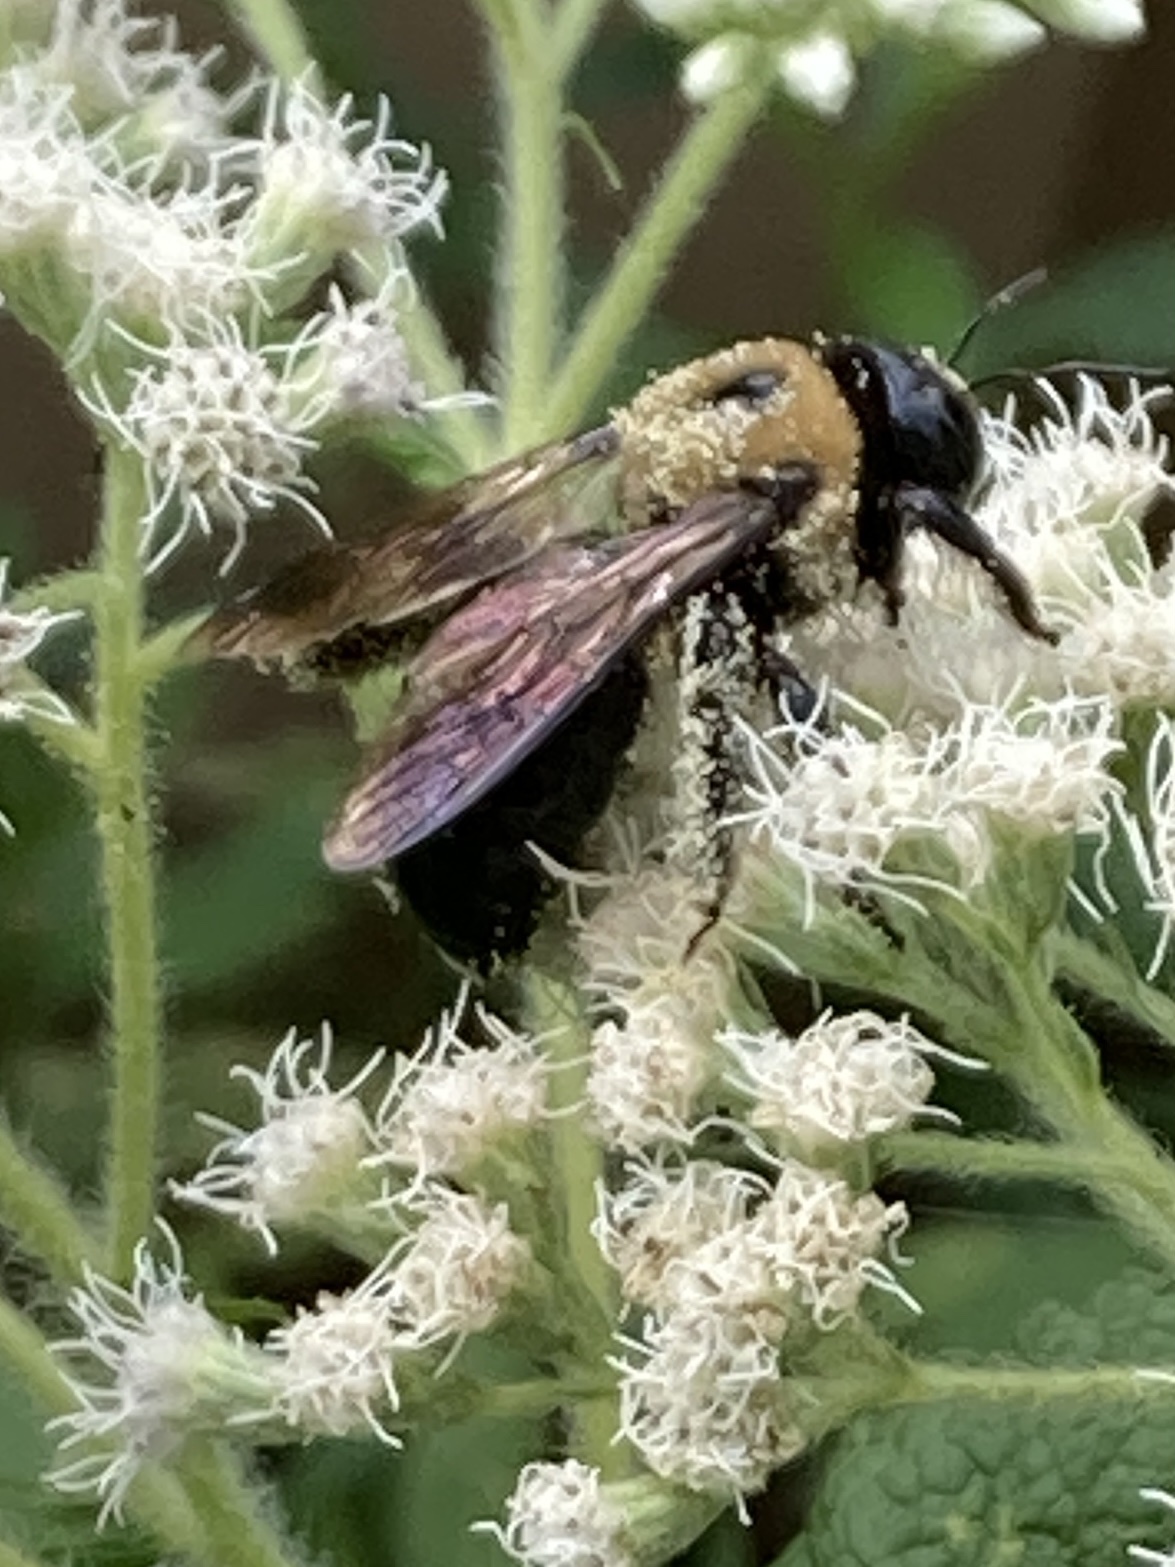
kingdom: Animalia
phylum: Arthropoda
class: Insecta
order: Hymenoptera
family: Apidae
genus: Xylocopa
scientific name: Xylocopa virginica
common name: Carpenter bee
